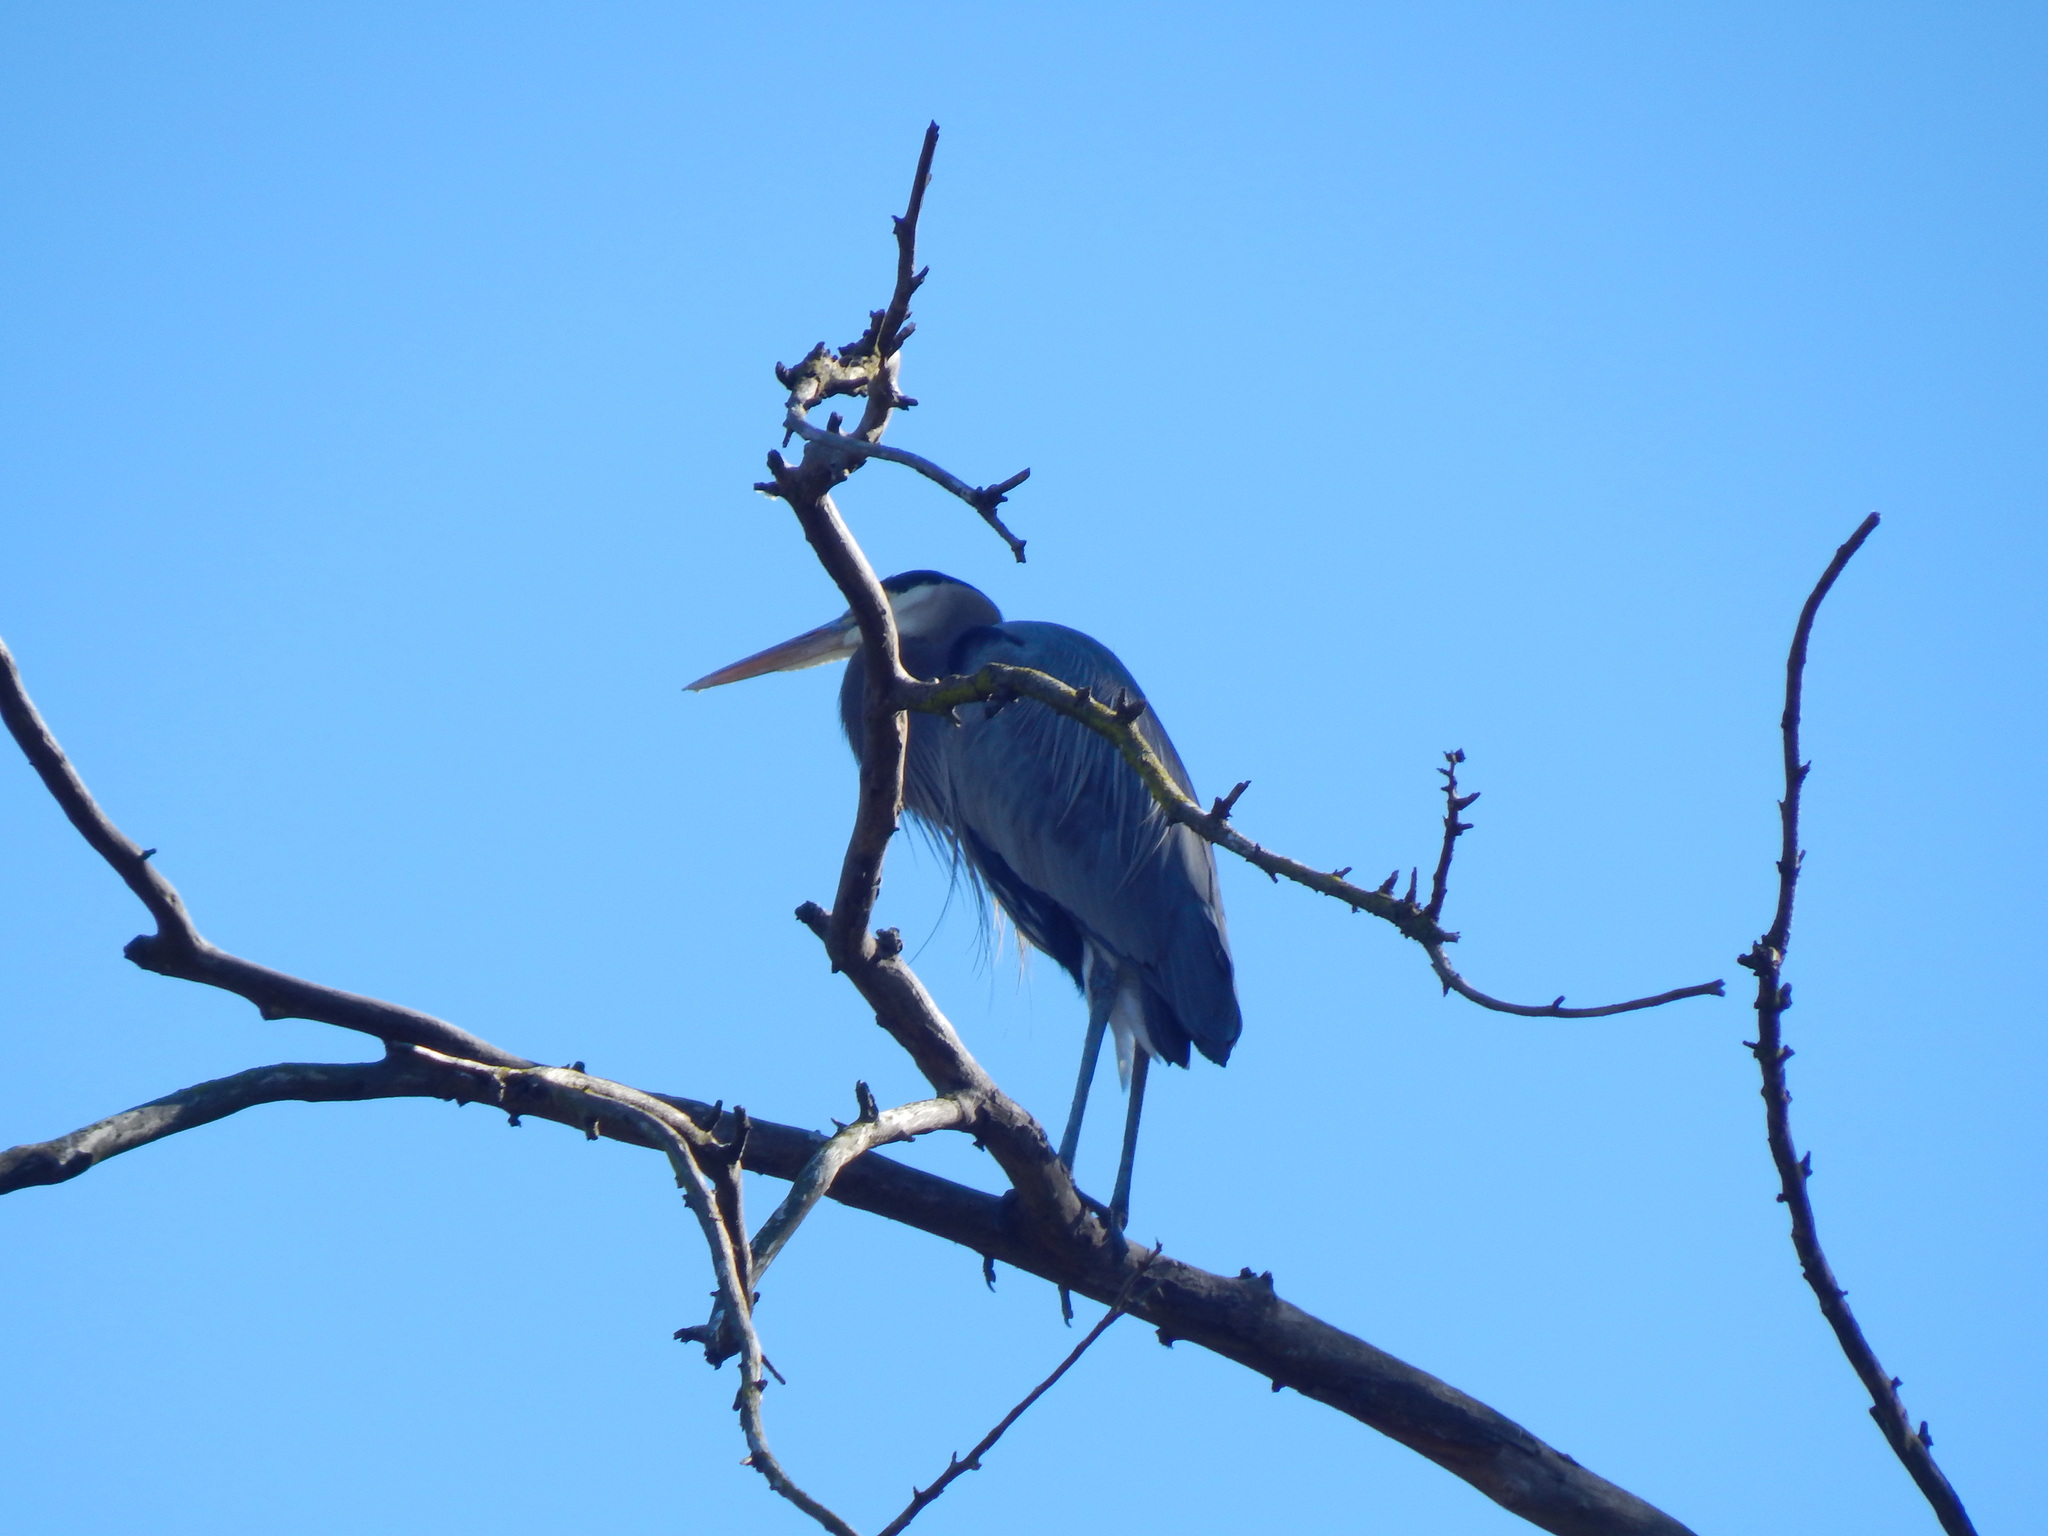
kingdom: Animalia
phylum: Chordata
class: Aves
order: Pelecaniformes
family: Ardeidae
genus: Ardea
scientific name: Ardea herodias
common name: Great blue heron
